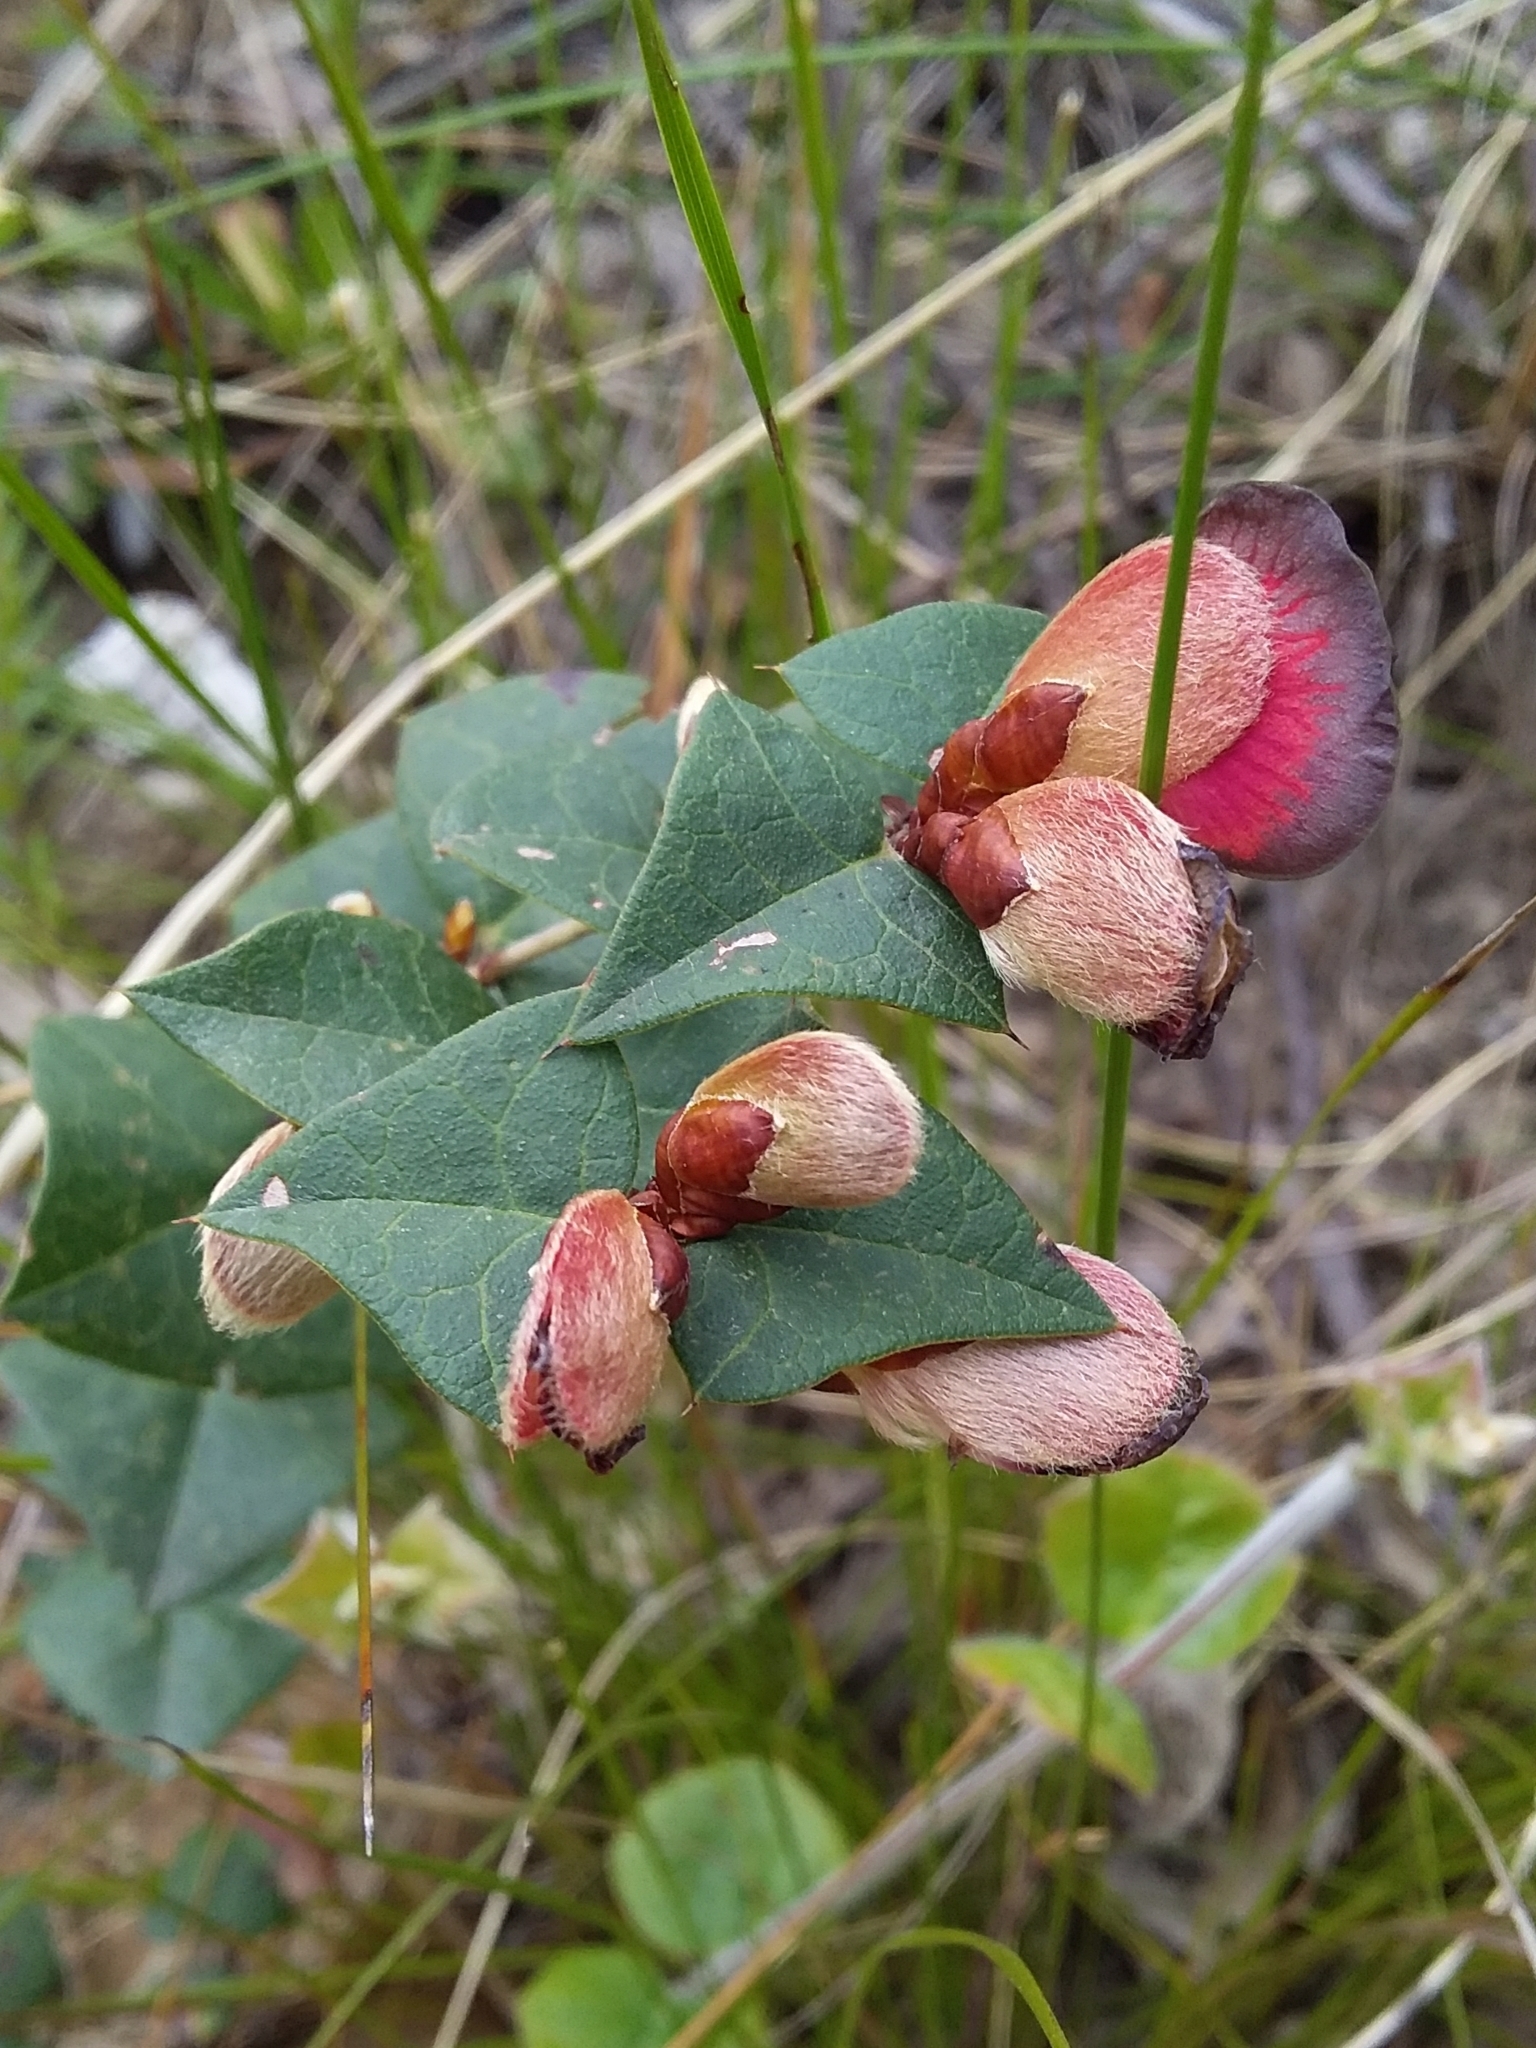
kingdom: Plantae
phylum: Tracheophyta
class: Magnoliopsida
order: Fabales
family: Fabaceae
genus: Platylobium
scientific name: Platylobium obtusangulum
